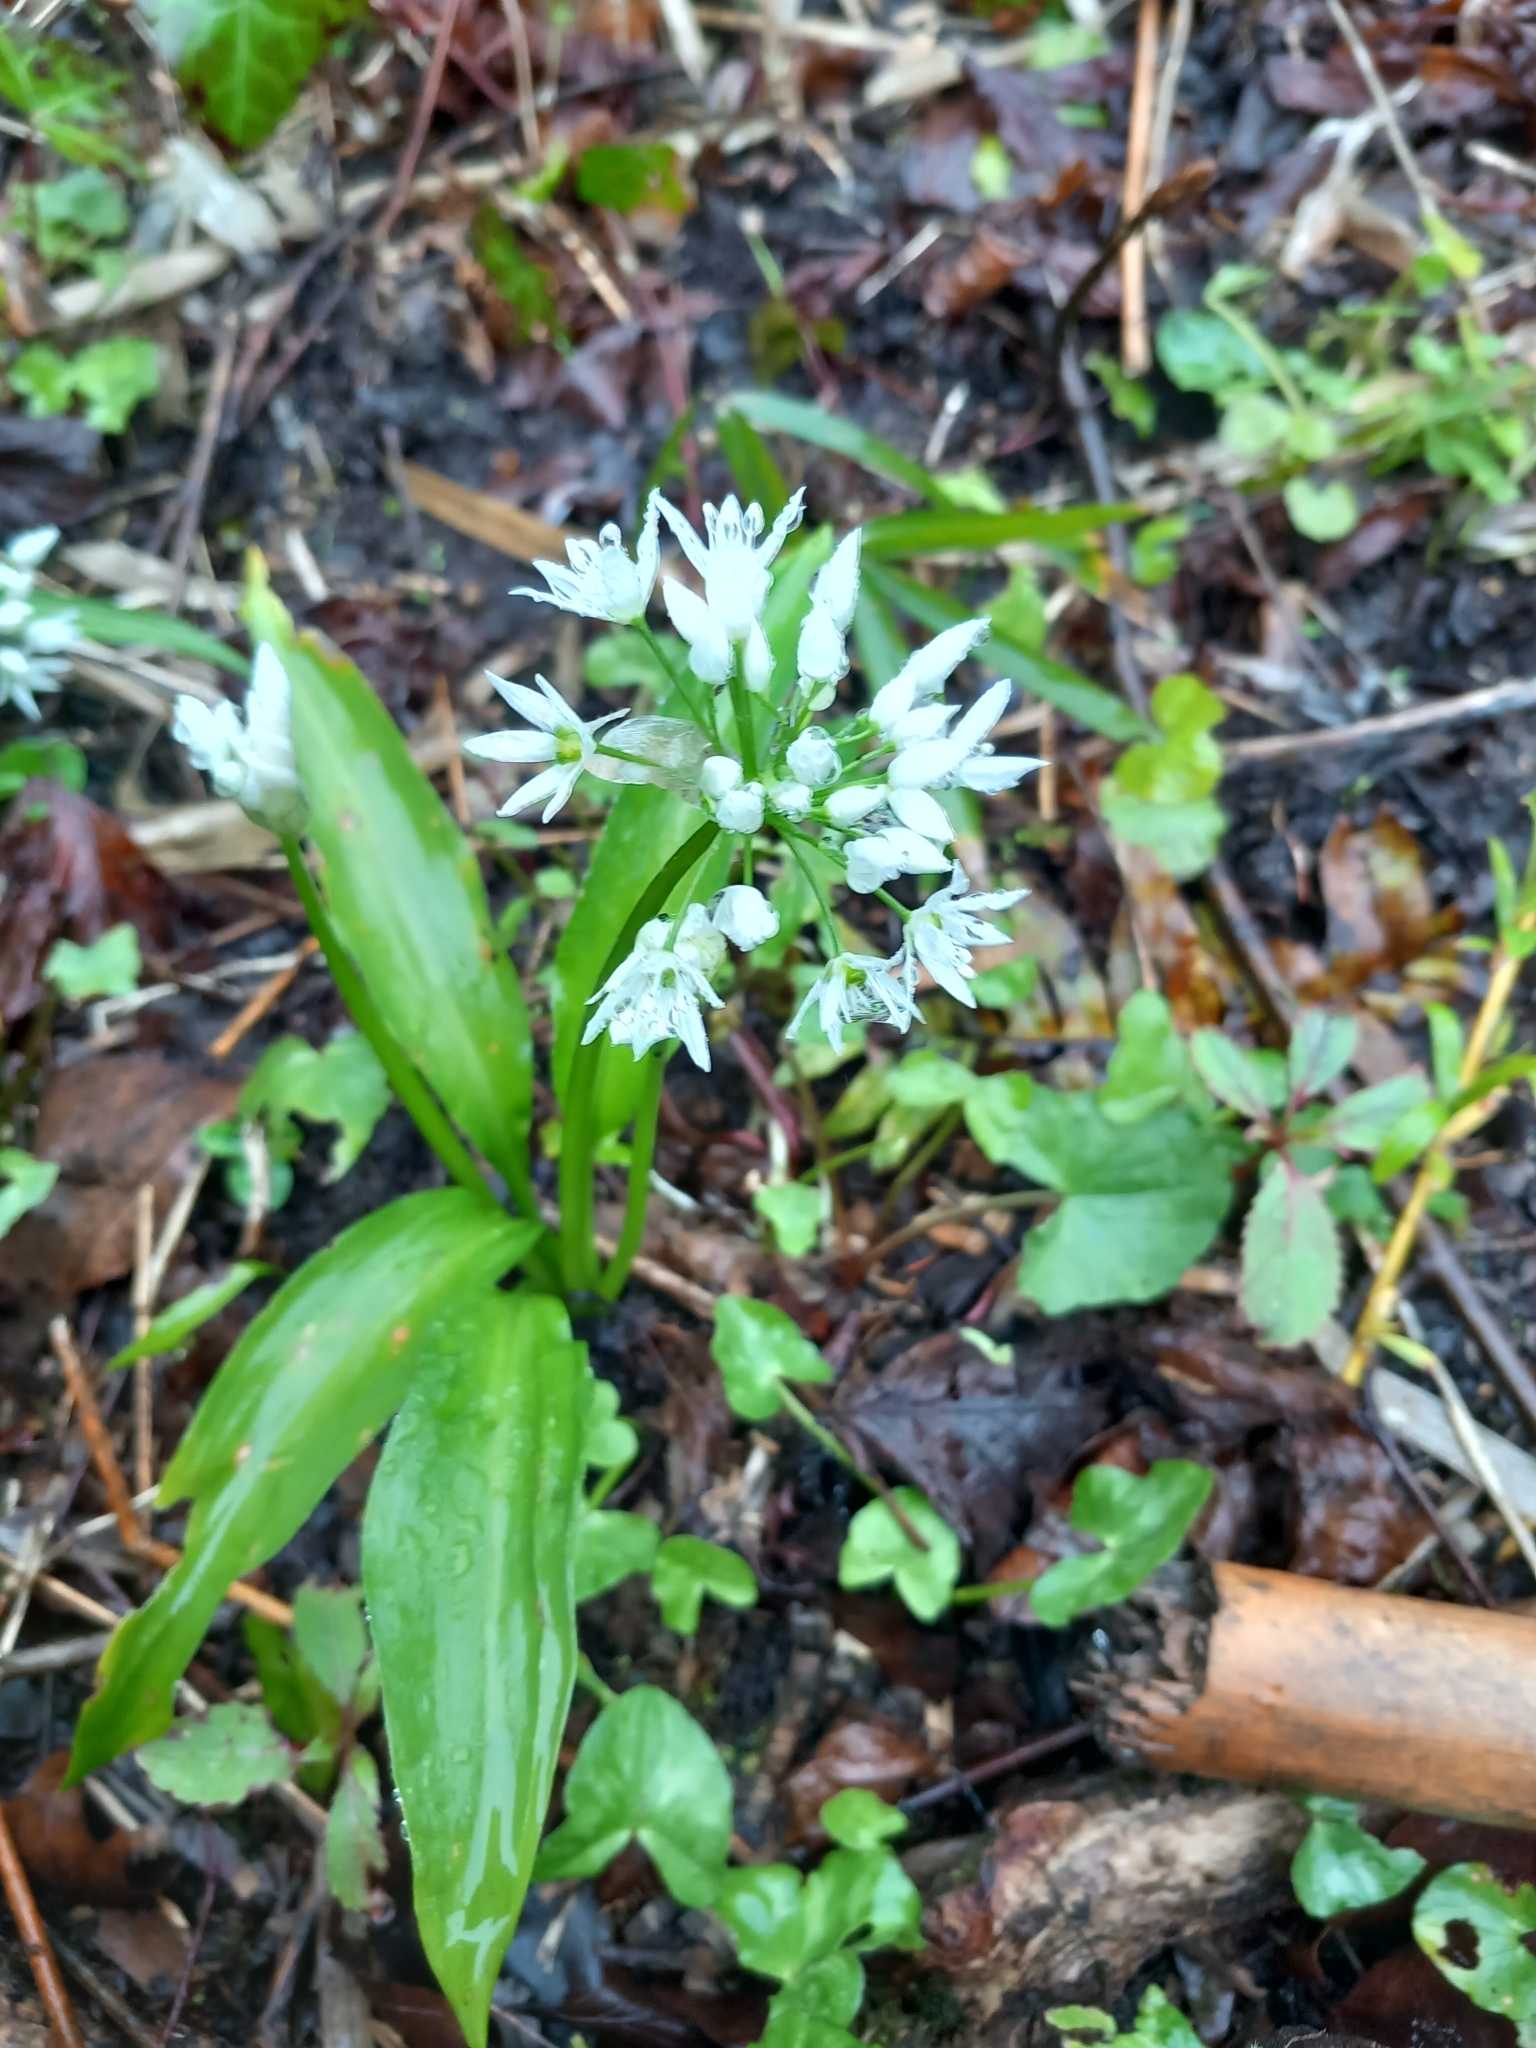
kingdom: Plantae
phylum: Tracheophyta
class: Liliopsida
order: Asparagales
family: Amaryllidaceae
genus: Allium
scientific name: Allium ursinum
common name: Ramsons
